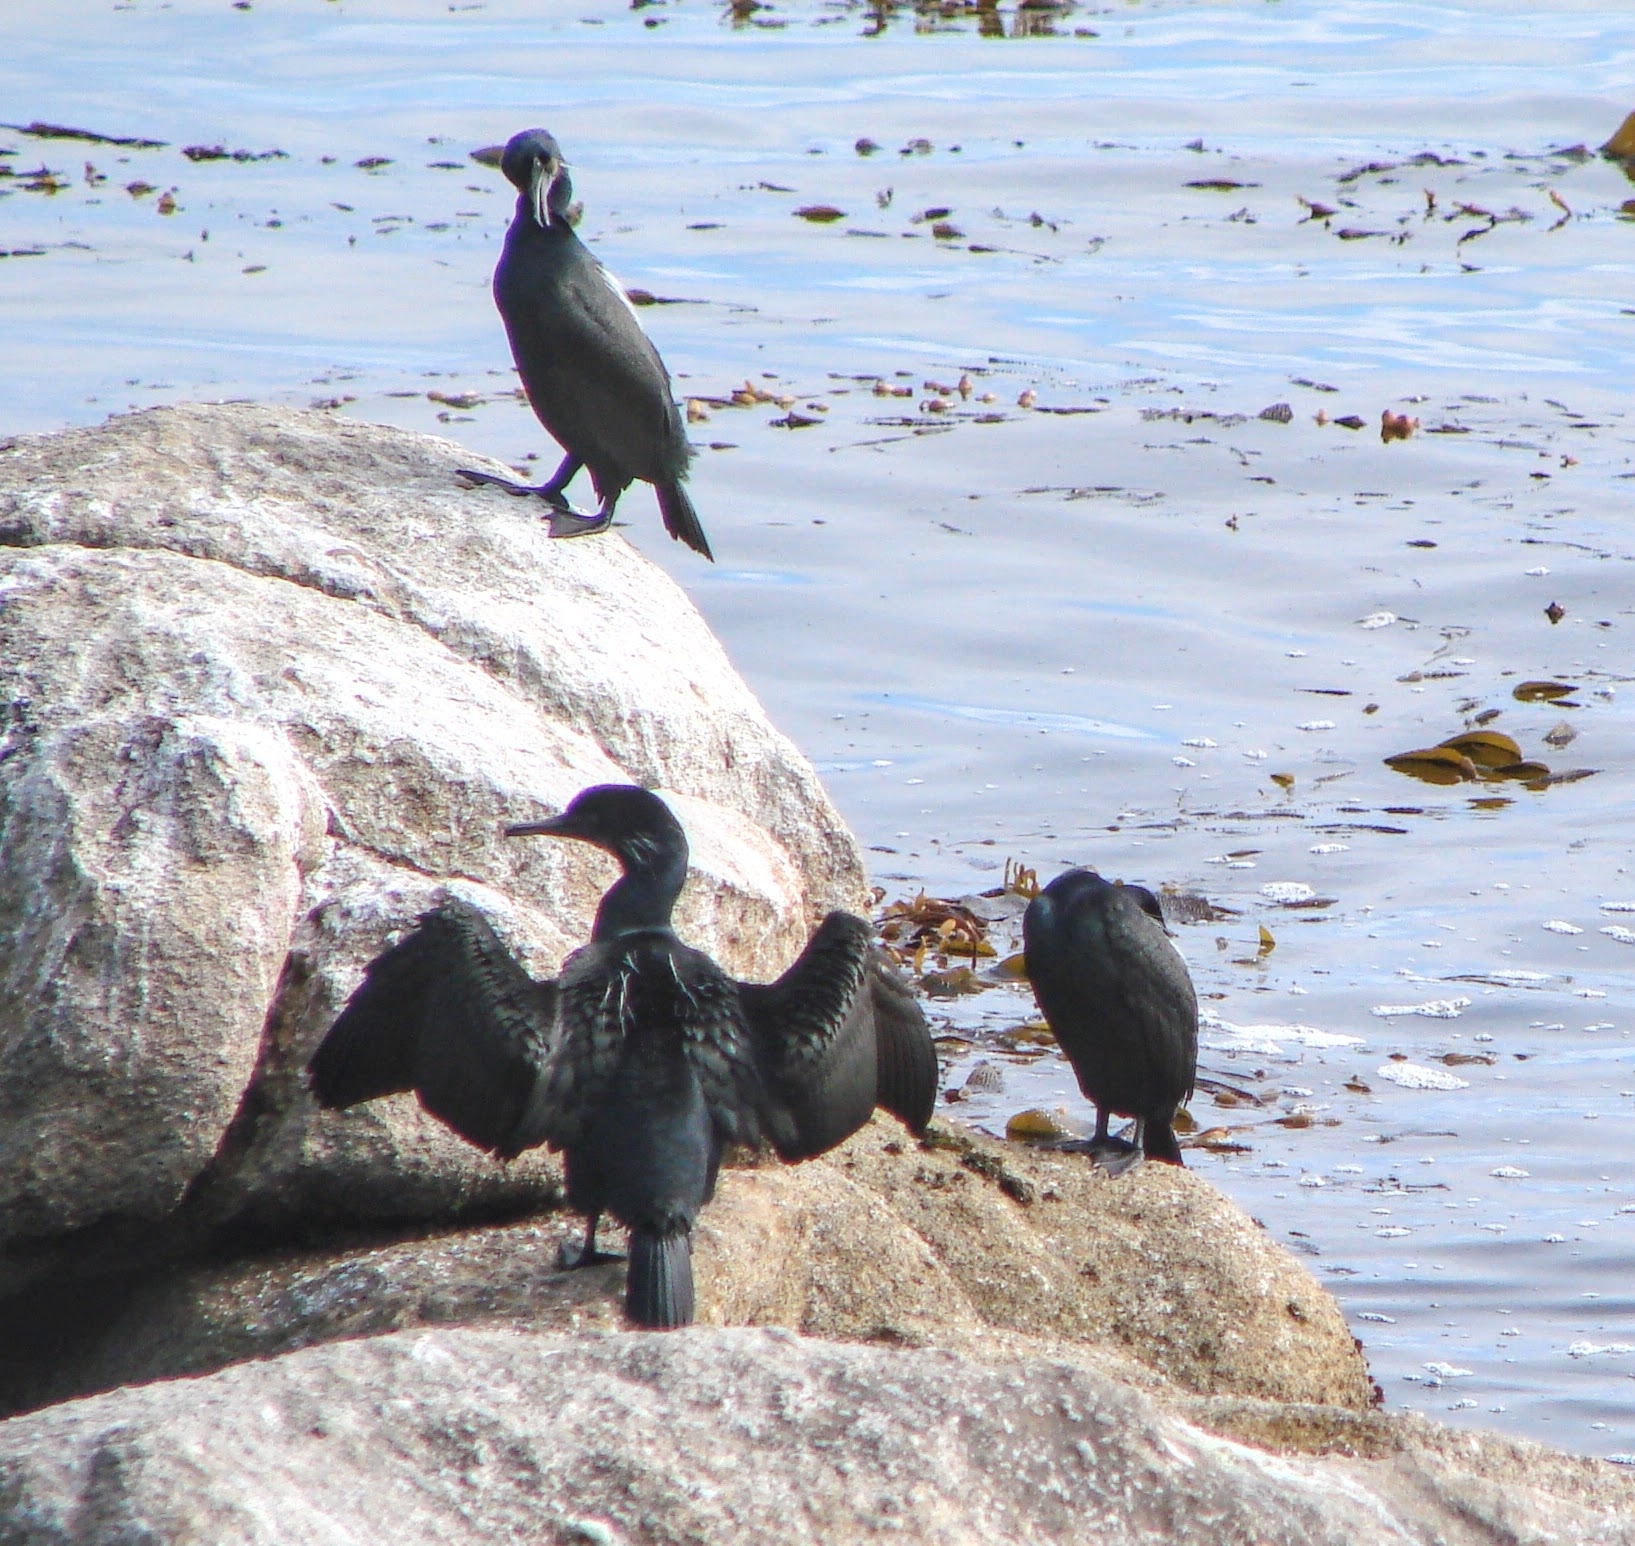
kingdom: Animalia
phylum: Chordata
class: Aves
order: Suliformes
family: Phalacrocoracidae
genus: Urile
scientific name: Urile penicillatus
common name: Brandt's cormorant
